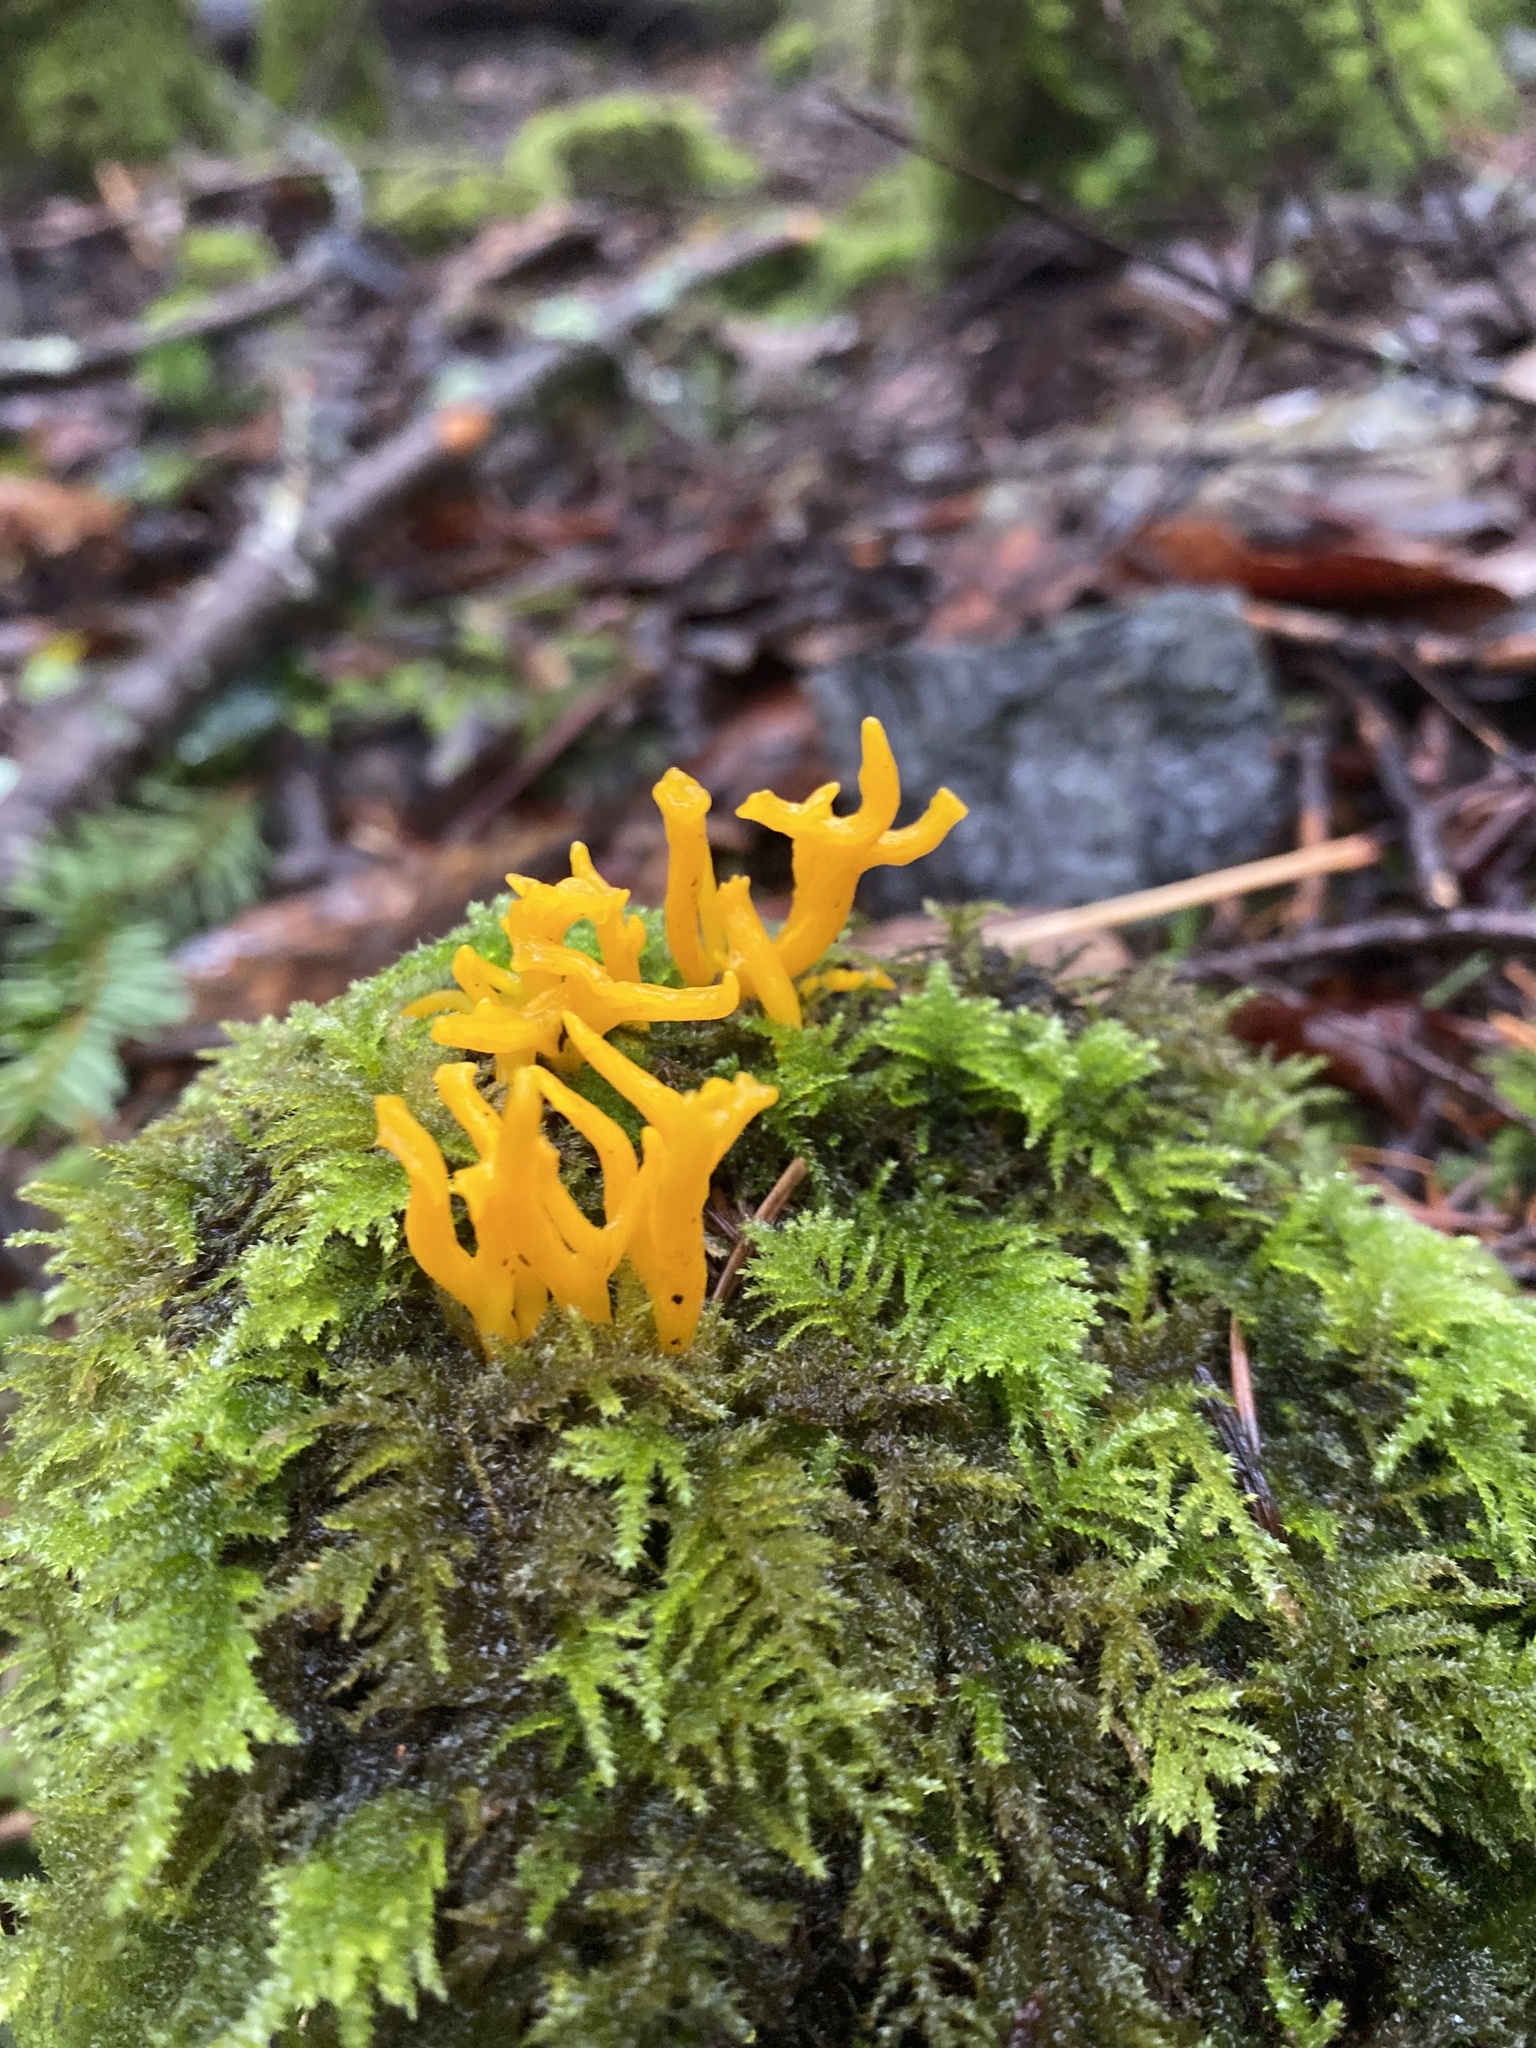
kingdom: Fungi
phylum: Basidiomycota
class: Dacrymycetes
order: Dacrymycetales
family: Dacrymycetaceae
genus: Calocera
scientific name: Calocera viscosa
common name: Yellow stagshorn
